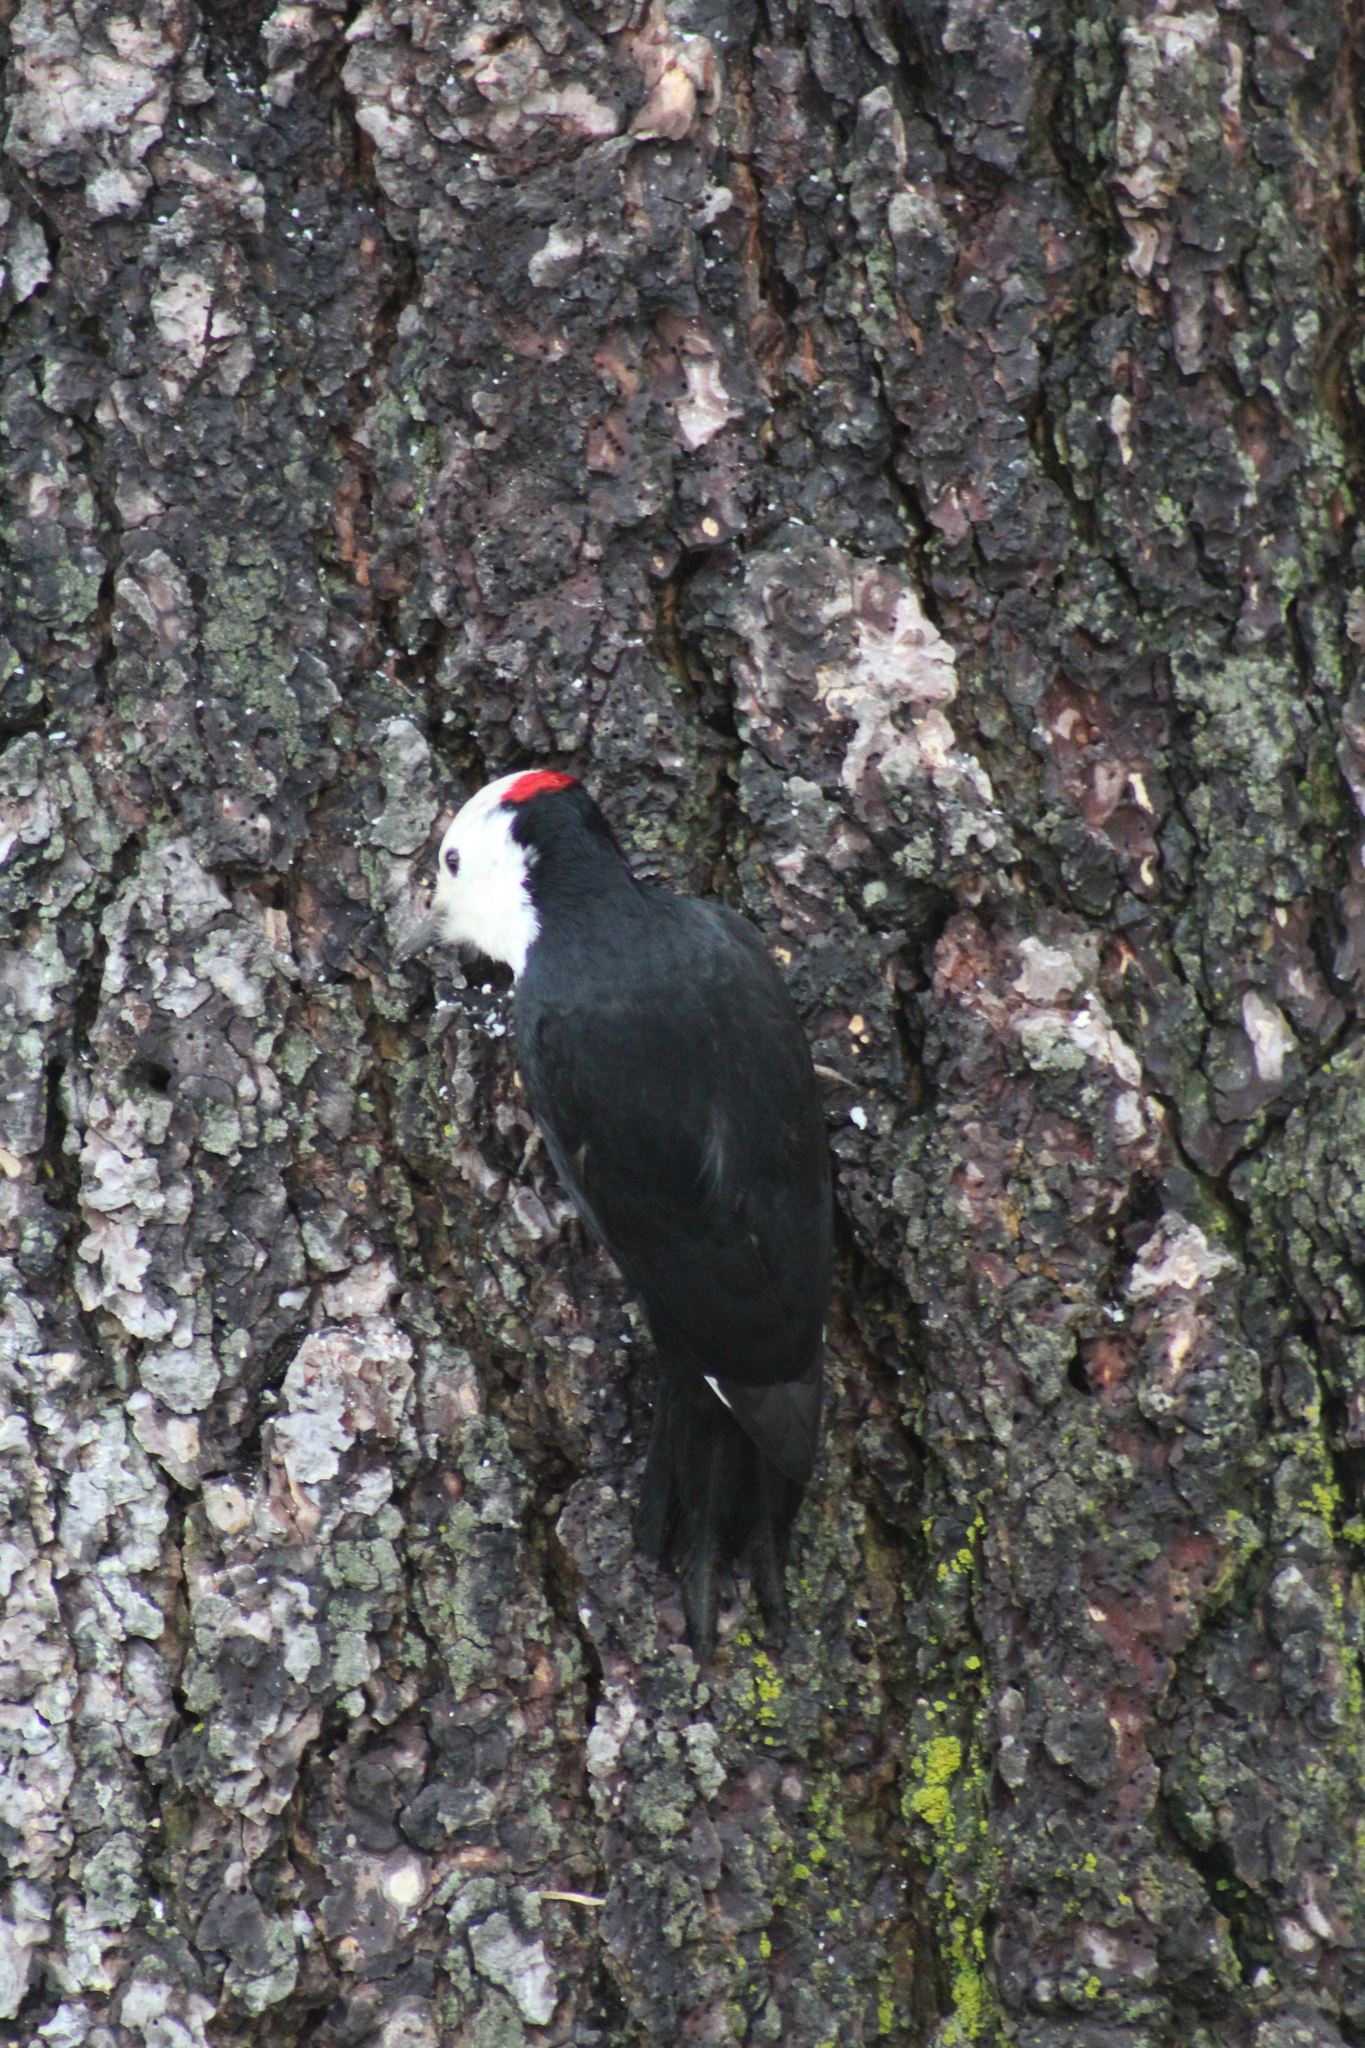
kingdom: Animalia
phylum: Chordata
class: Aves
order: Piciformes
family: Picidae
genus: Leuconotopicus
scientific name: Leuconotopicus albolarvatus
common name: White-headed woodpecker
